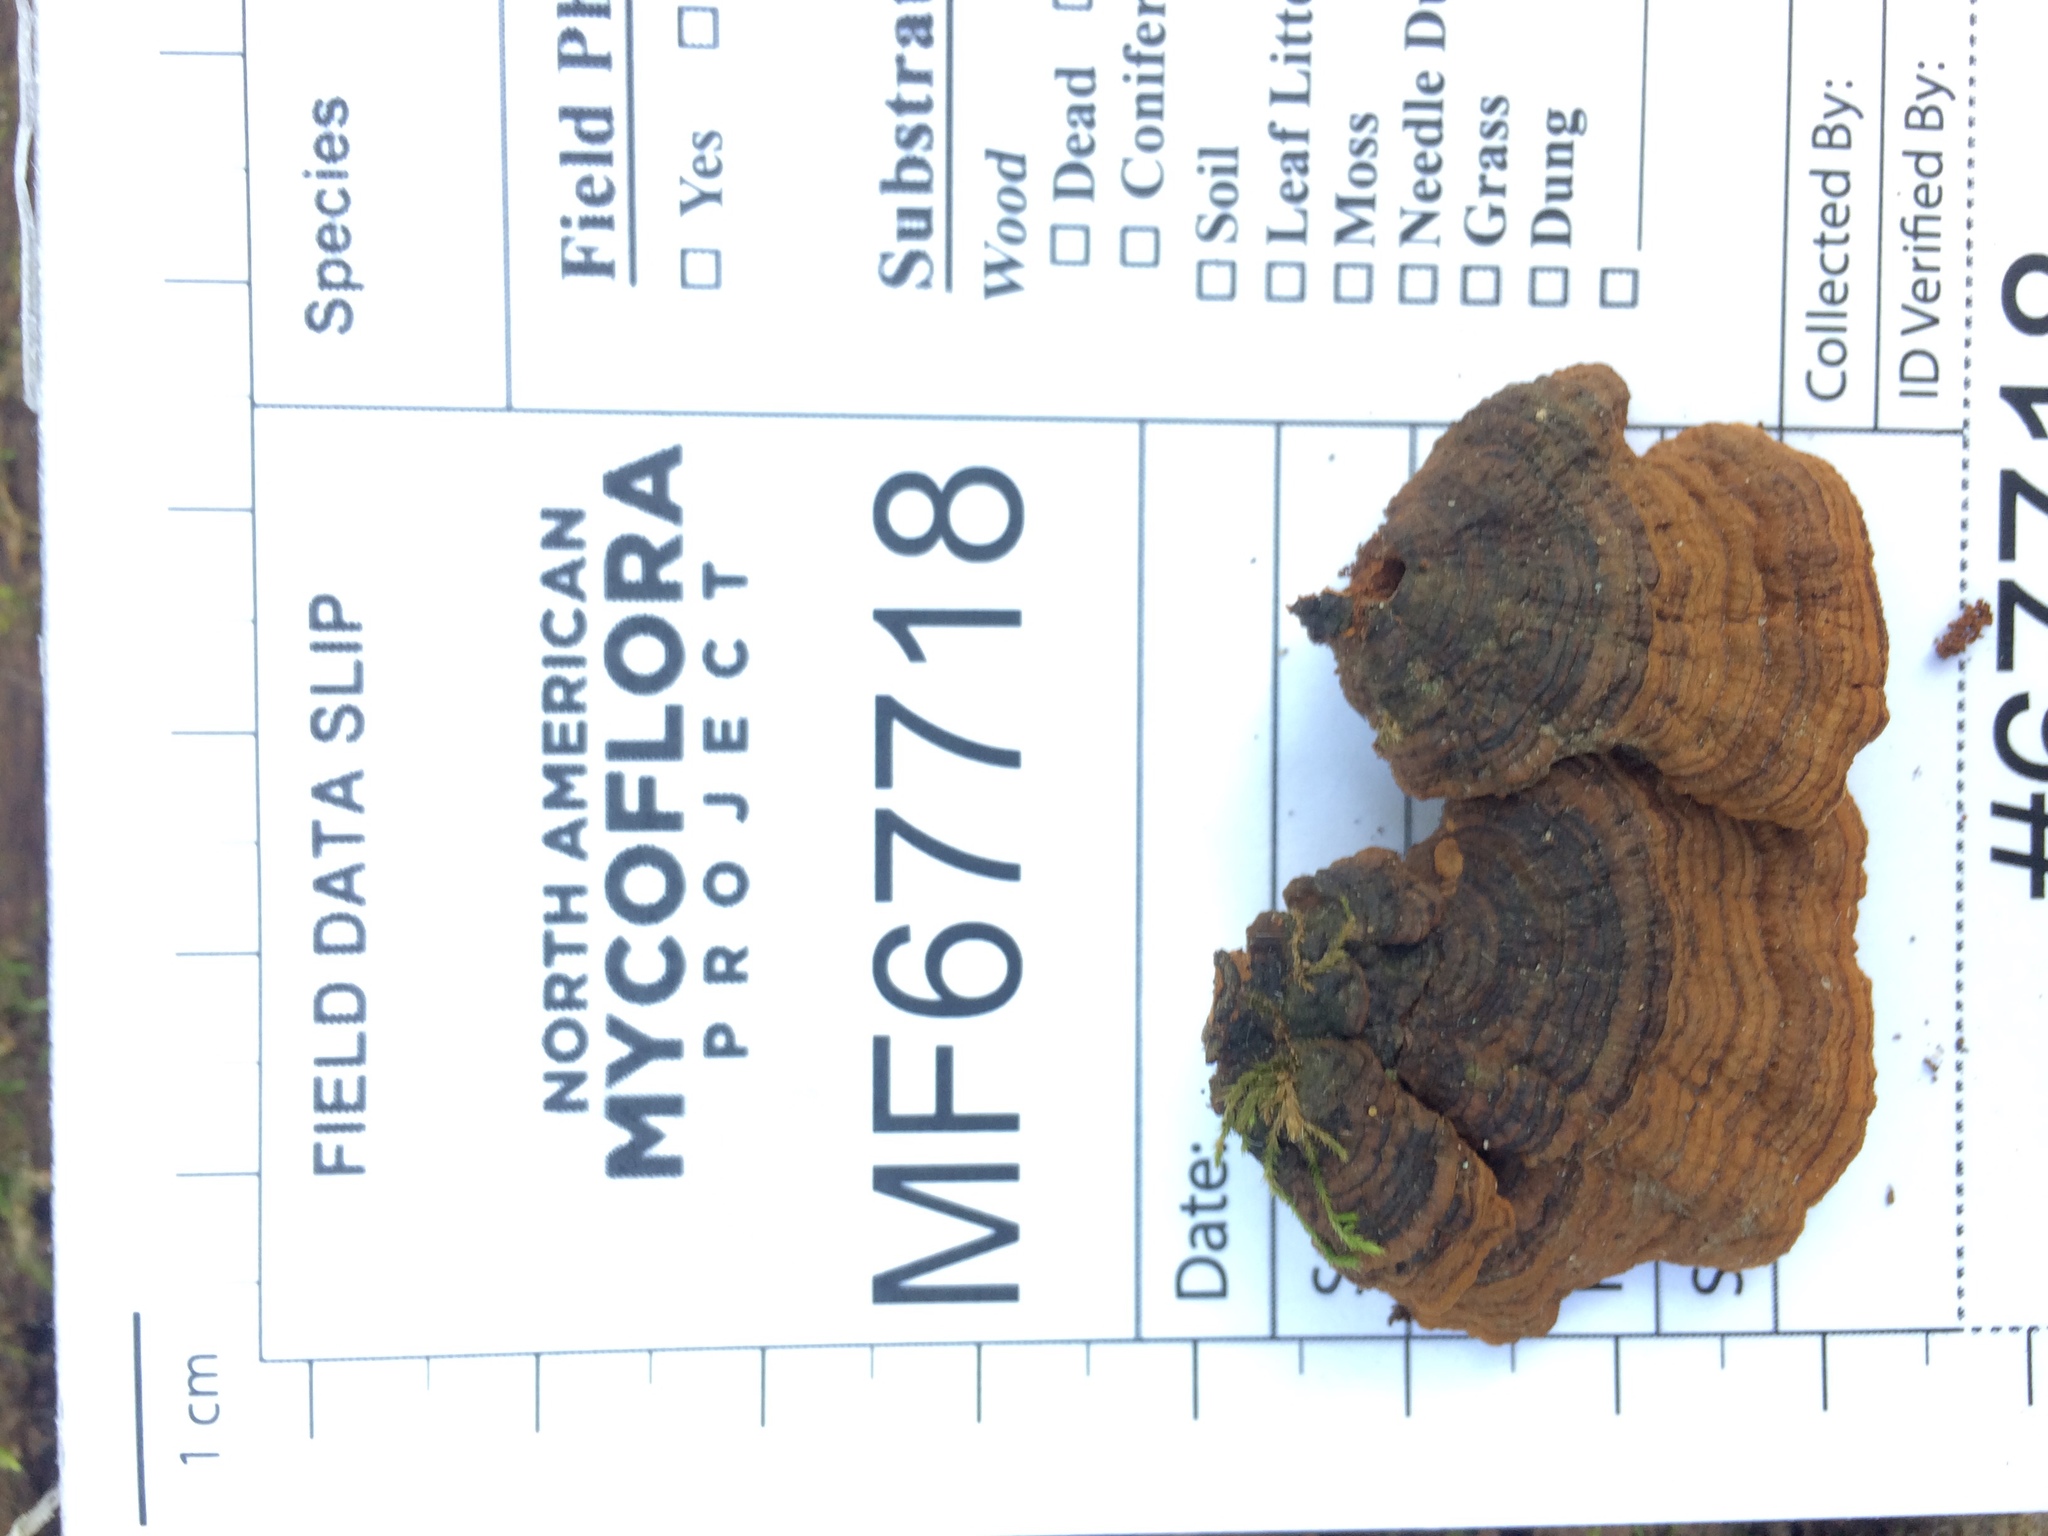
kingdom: Fungi
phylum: Basidiomycota
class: Agaricomycetes
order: Hymenochaetales
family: Hymenochaetaceae
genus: Hymenochaete
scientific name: Hymenochaete rubiginosa
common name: Oak curtain crust
